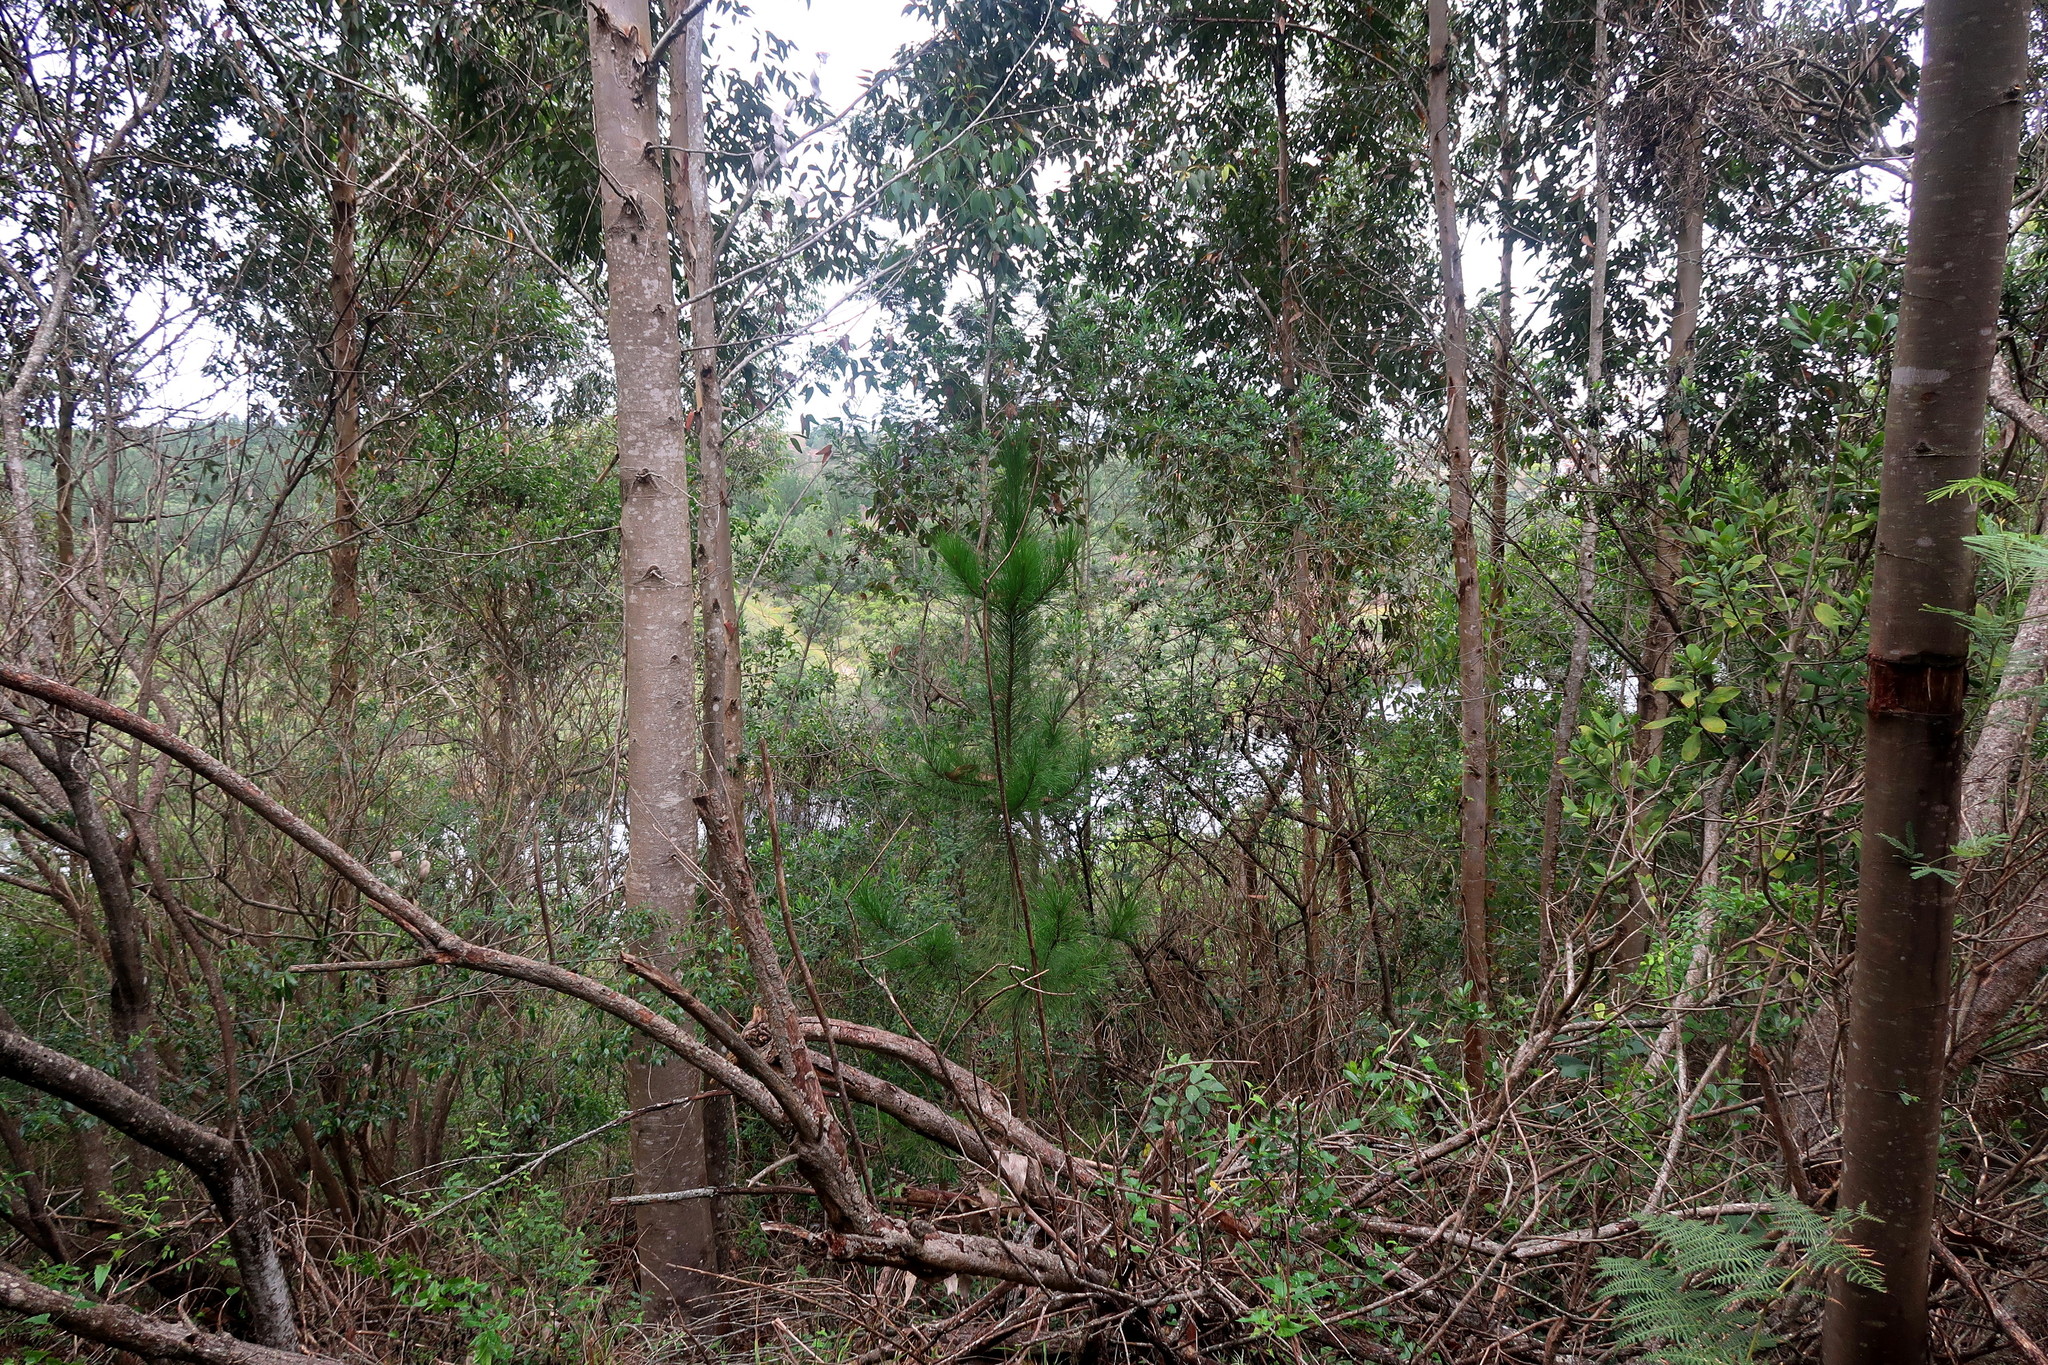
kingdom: Plantae
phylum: Tracheophyta
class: Pinopsida
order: Pinales
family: Pinaceae
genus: Pinus
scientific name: Pinus pinaster
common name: Maritime pine
